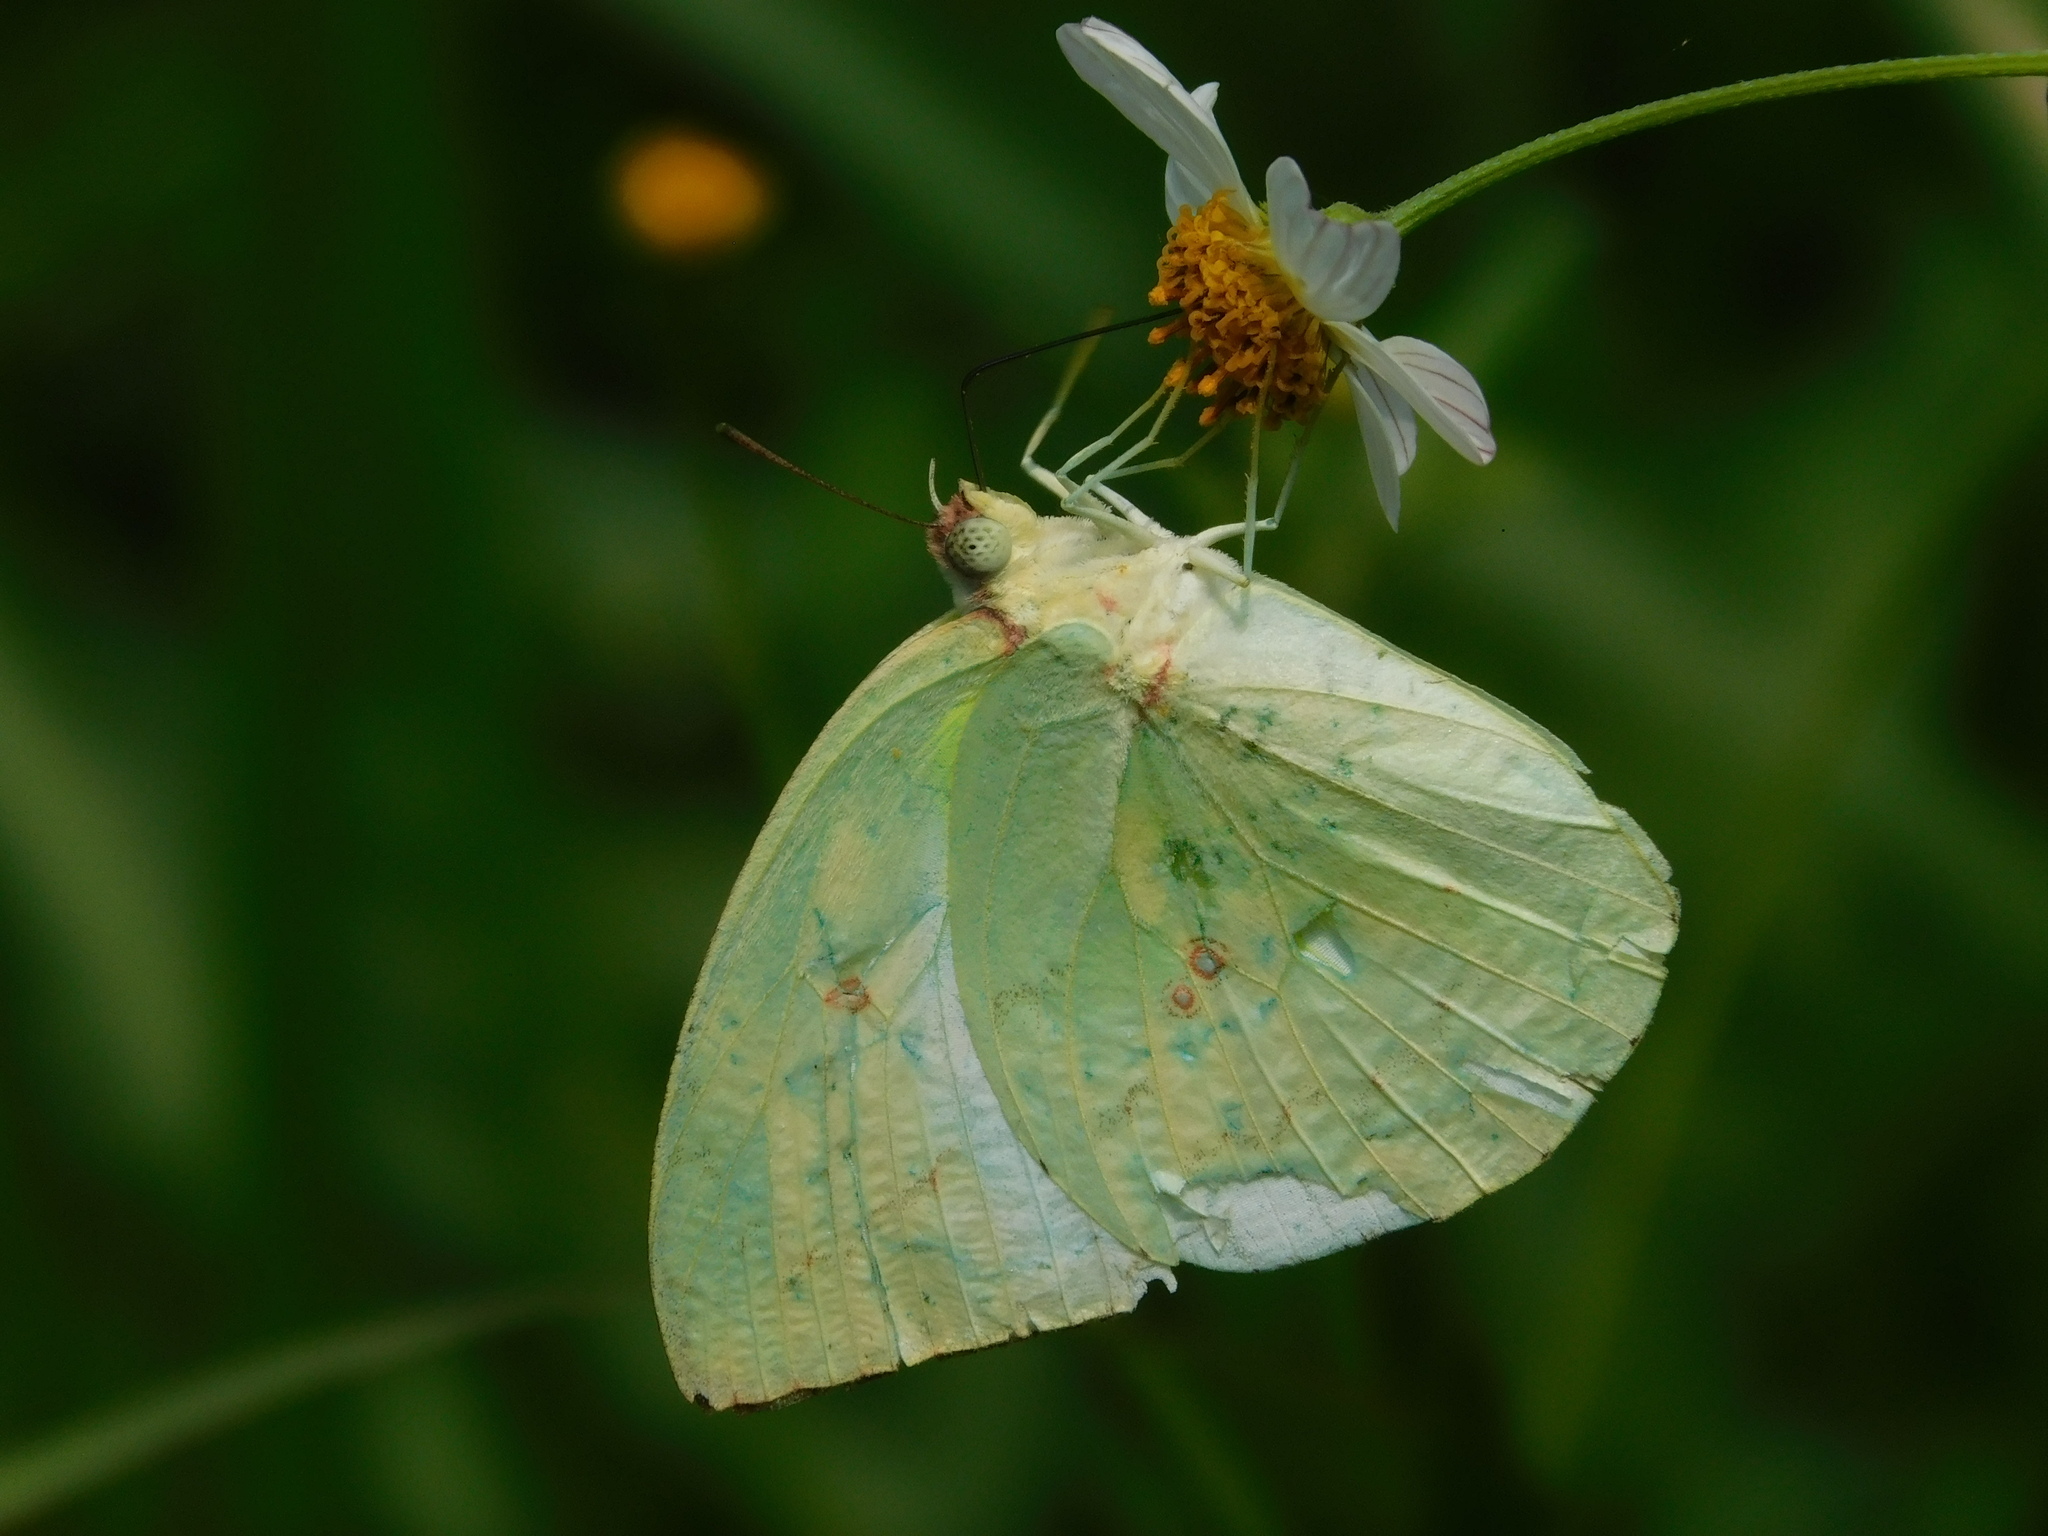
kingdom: Animalia
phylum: Arthropoda
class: Insecta
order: Lepidoptera
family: Pieridae
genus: Catopsilia
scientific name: Catopsilia pomona
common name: Common emigrant
